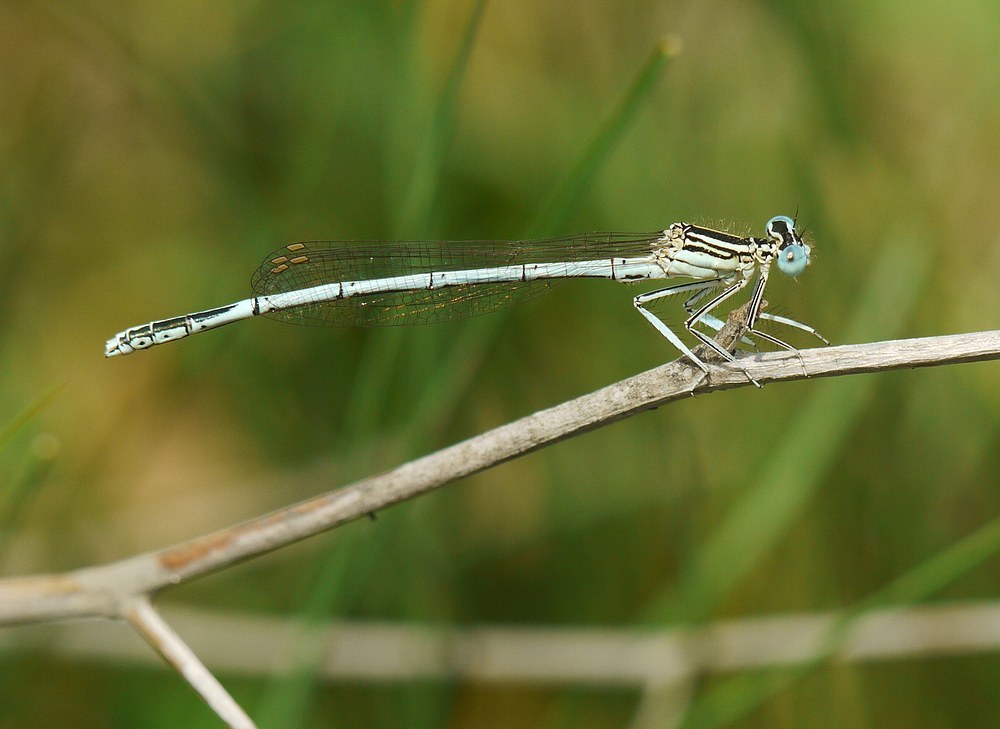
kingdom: Animalia
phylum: Arthropoda
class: Insecta
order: Odonata
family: Platycnemididae
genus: Platycnemis
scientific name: Platycnemis pennipes
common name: White-legged damselfly
